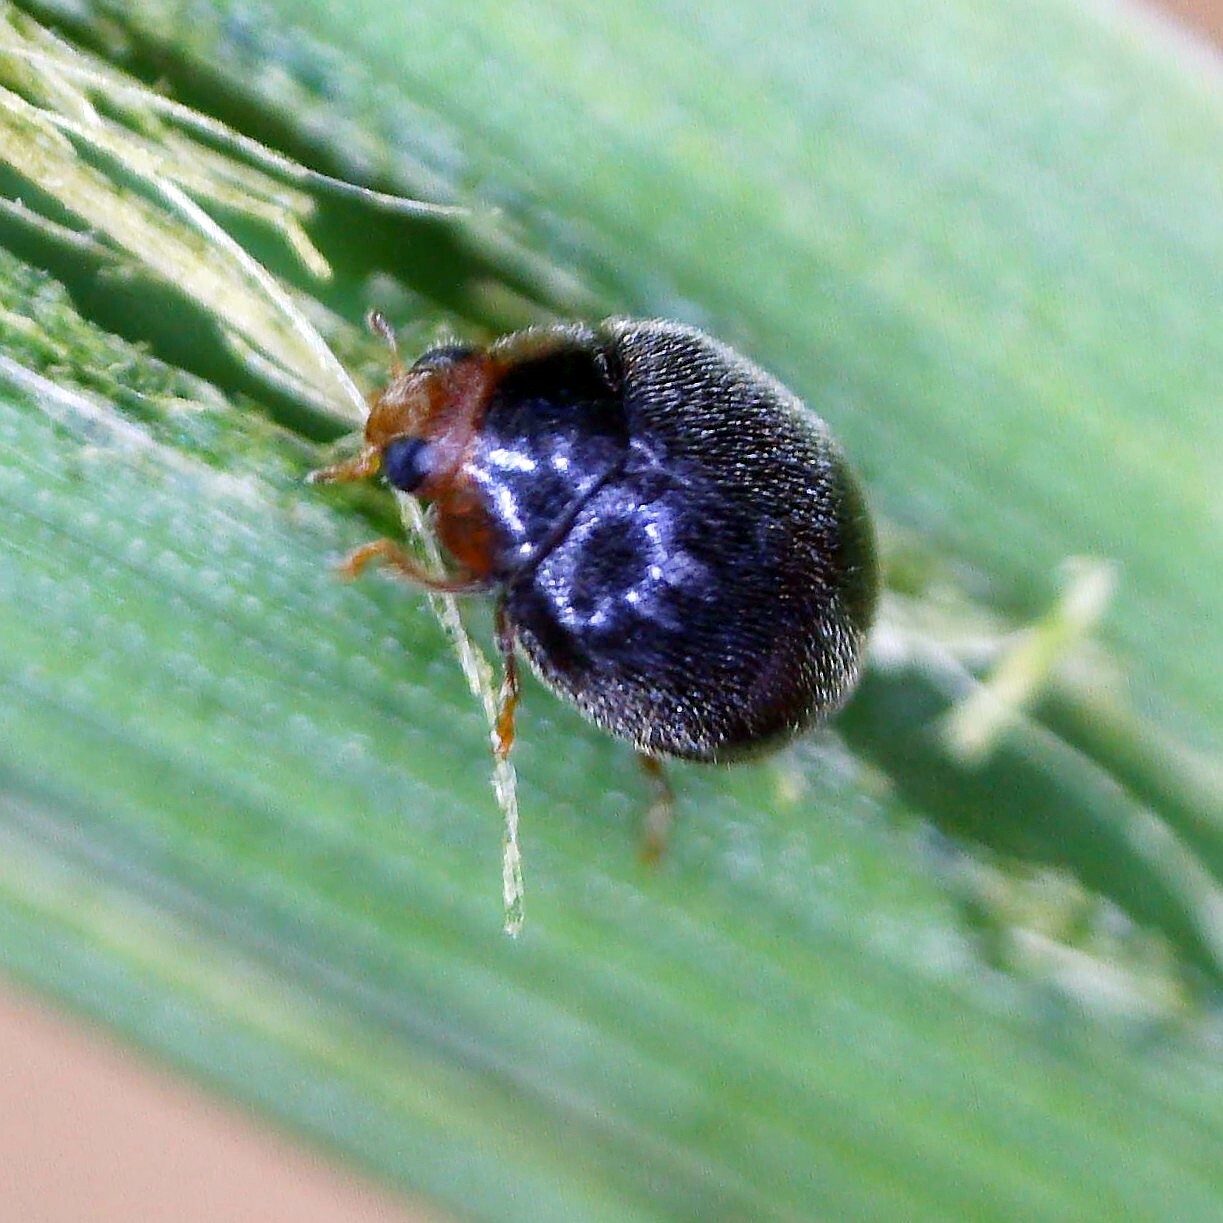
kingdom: Animalia
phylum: Arthropoda
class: Insecta
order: Coleoptera
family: Coccinellidae
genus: Scymnus
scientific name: Scymnus auritus
